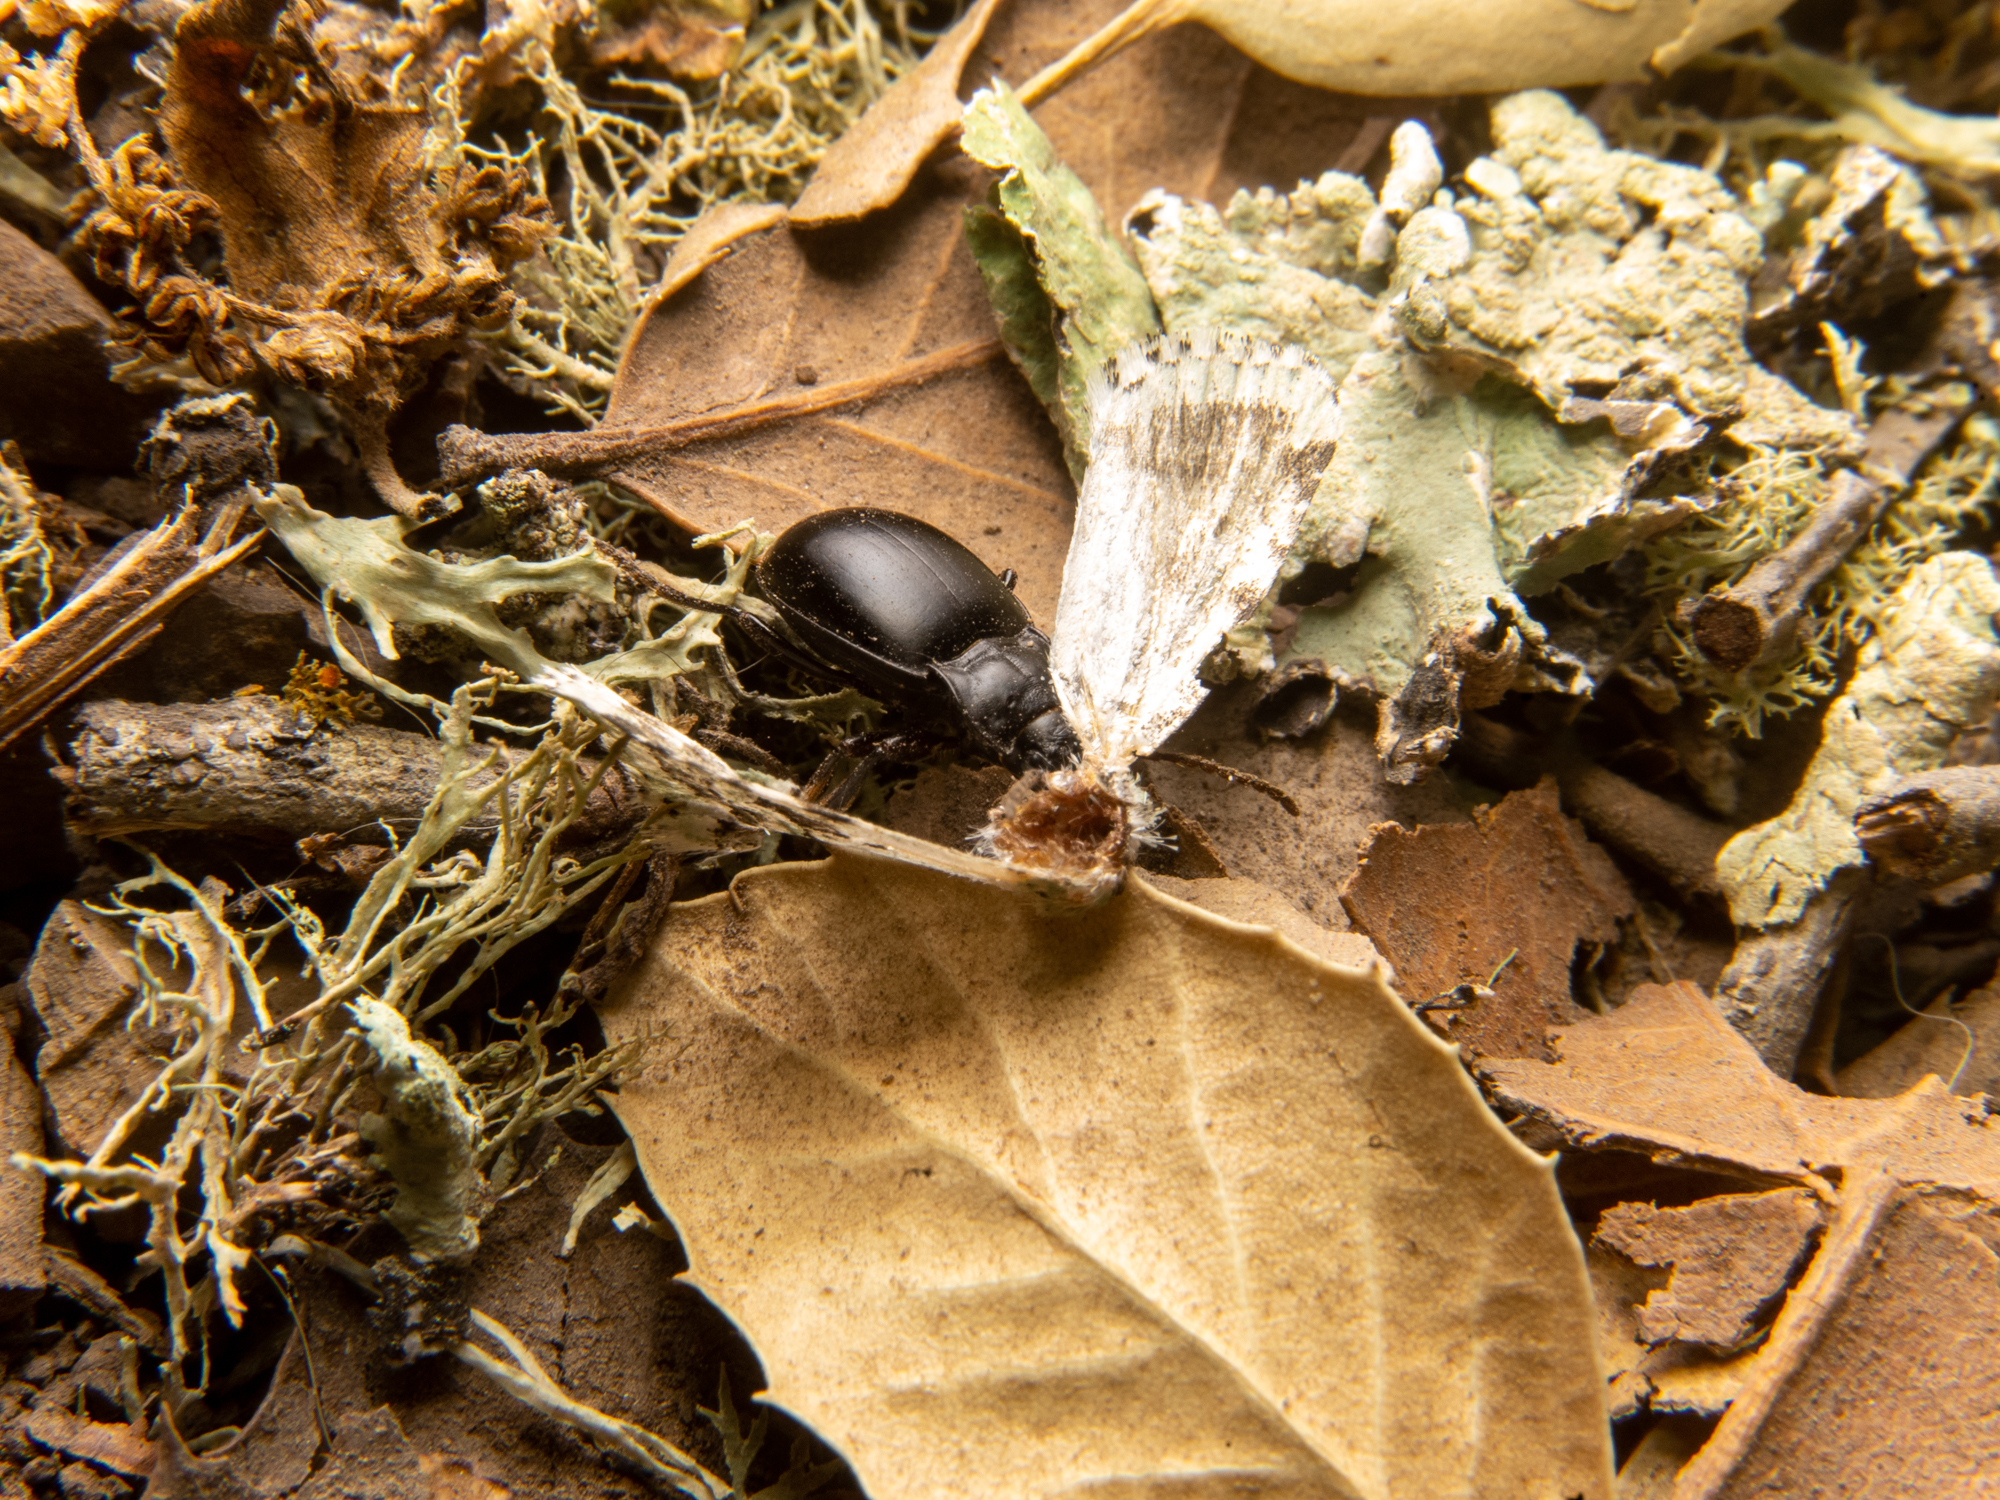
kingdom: Animalia
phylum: Arthropoda
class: Insecta
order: Coleoptera
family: Carabidae
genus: Metrius
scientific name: Metrius contractus
